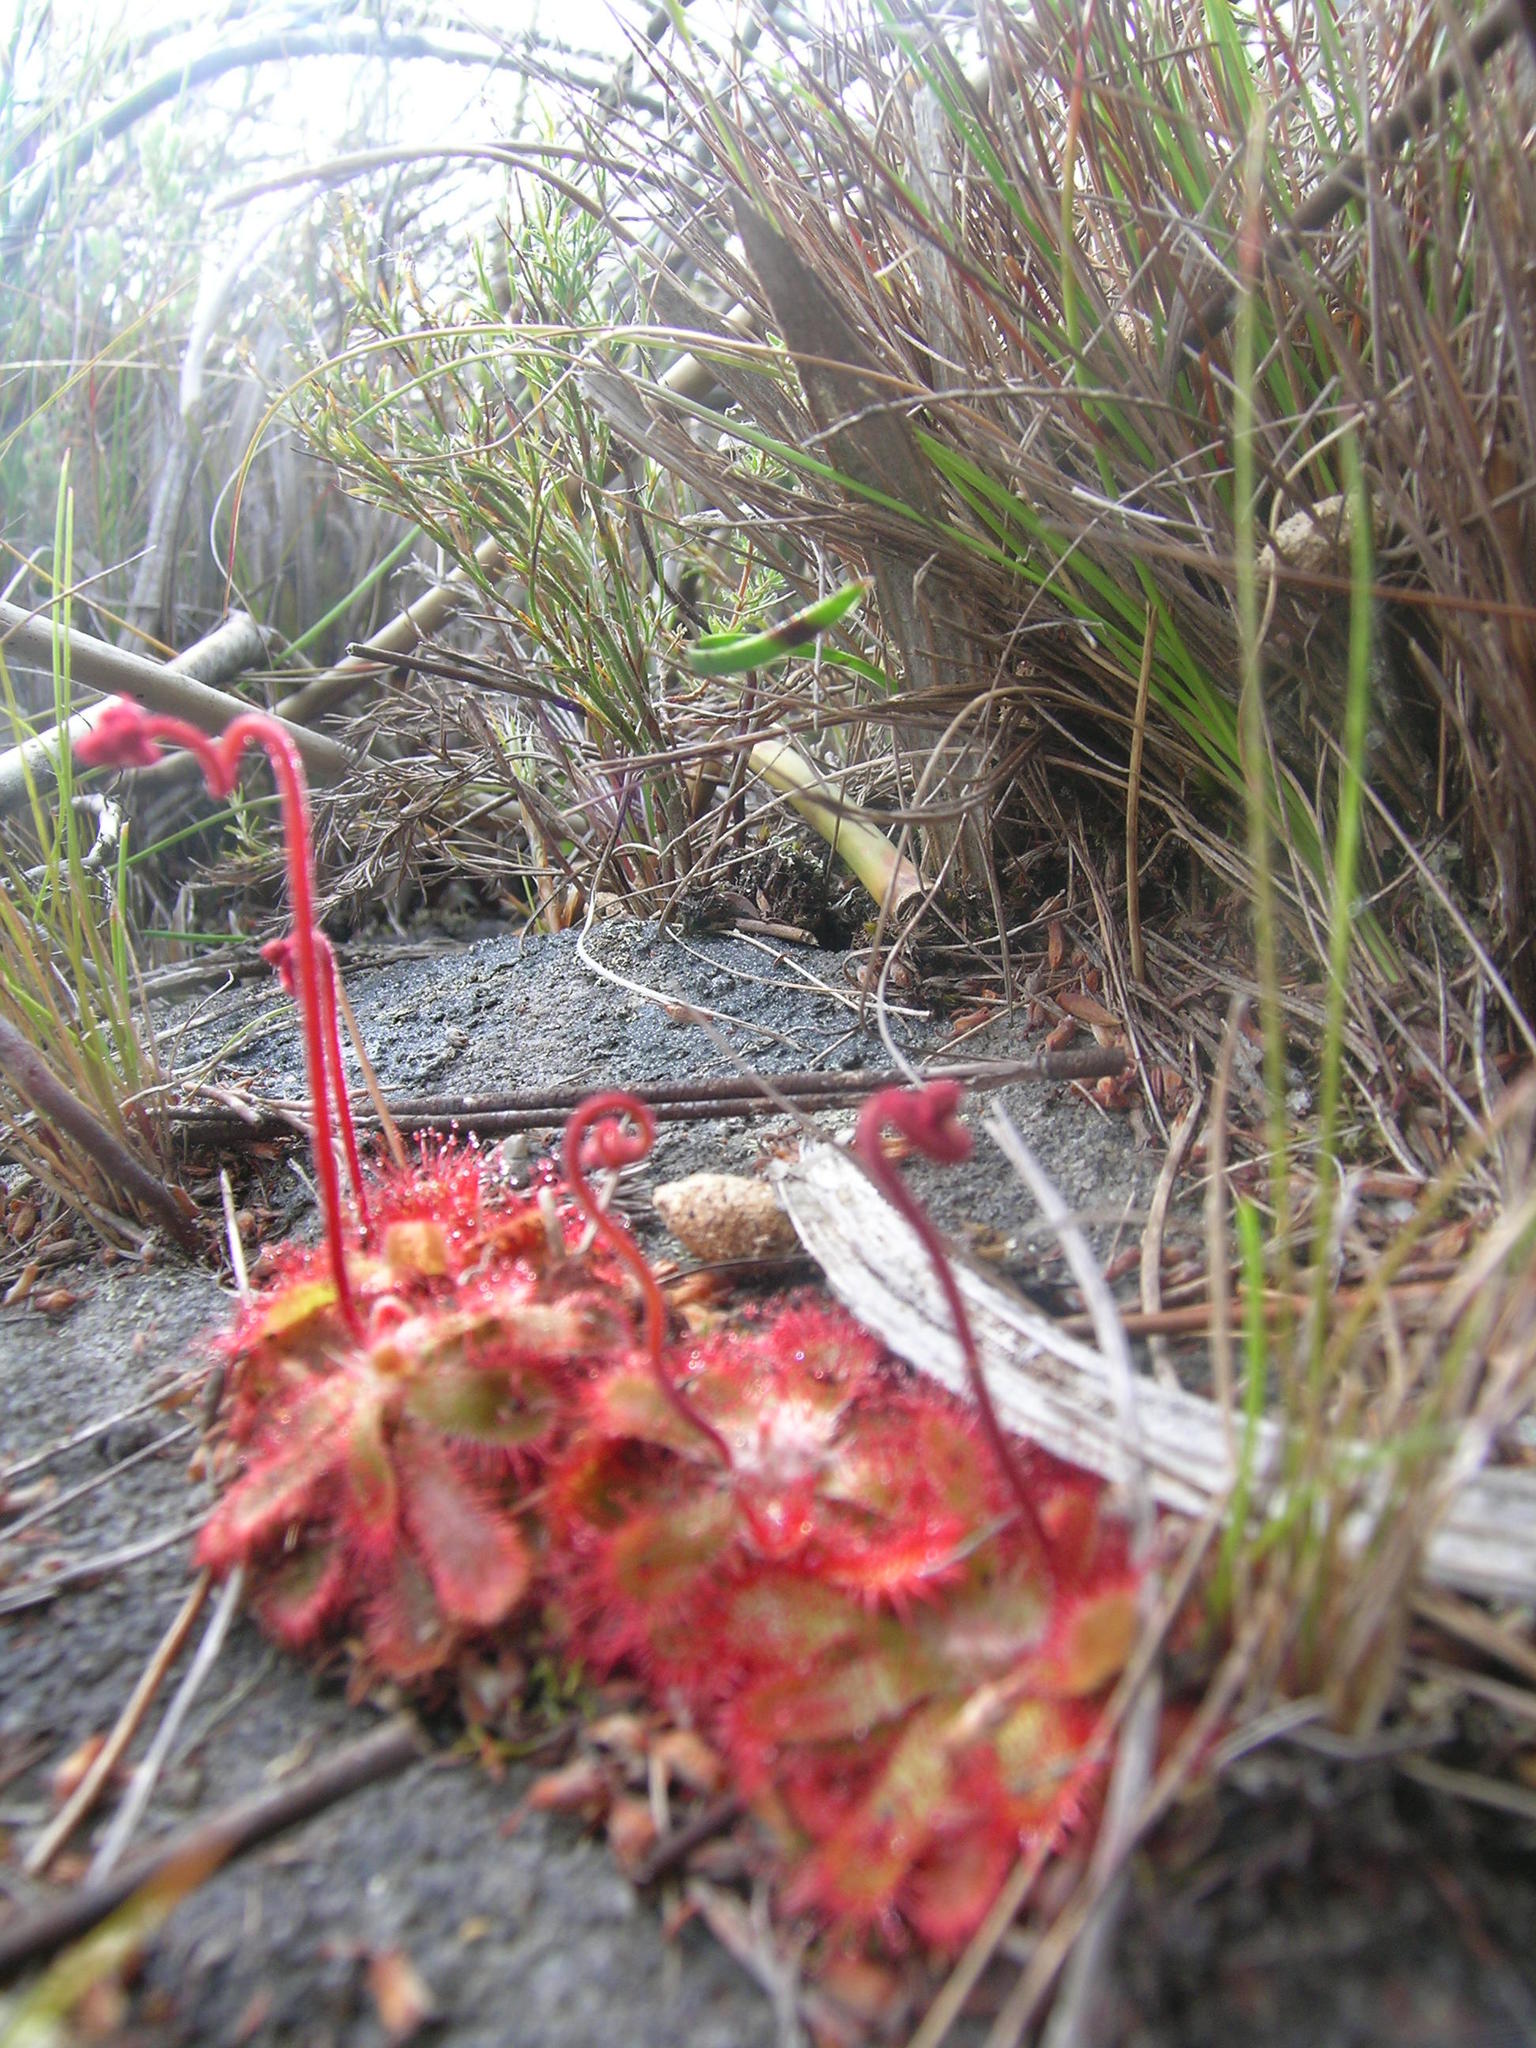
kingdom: Plantae
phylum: Tracheophyta
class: Magnoliopsida
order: Caryophyllales
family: Droseraceae
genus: Drosera
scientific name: Drosera aliciae
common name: Alice sundew
